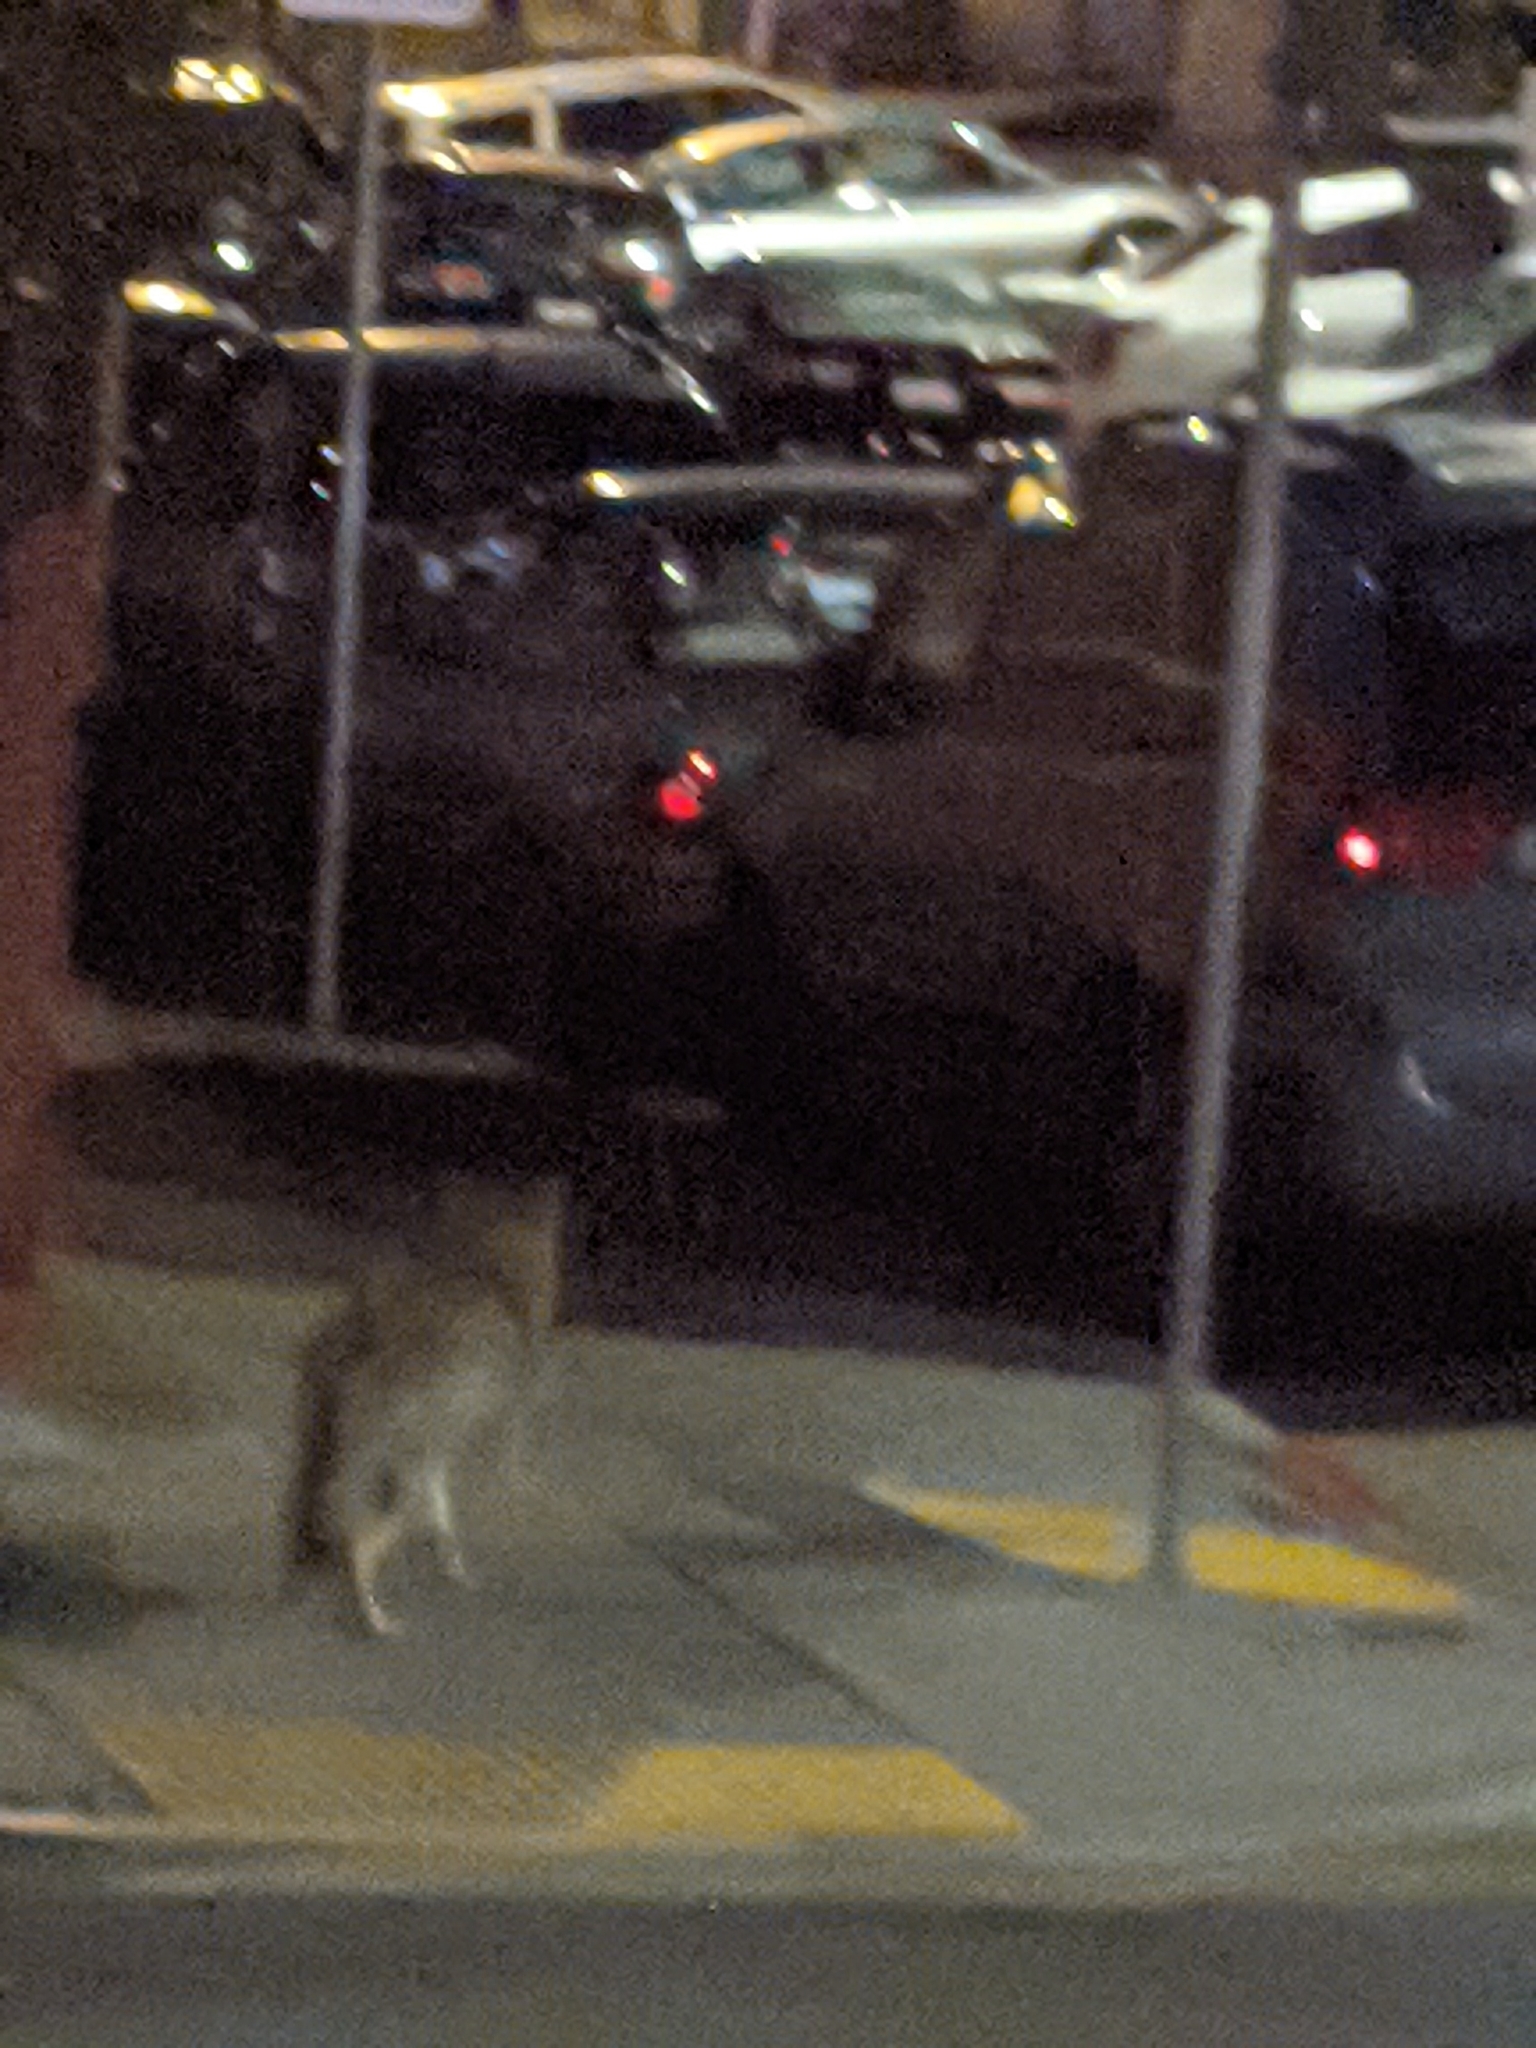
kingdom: Animalia
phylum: Chordata
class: Mammalia
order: Carnivora
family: Canidae
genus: Canis
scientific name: Canis latrans
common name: Coyote
